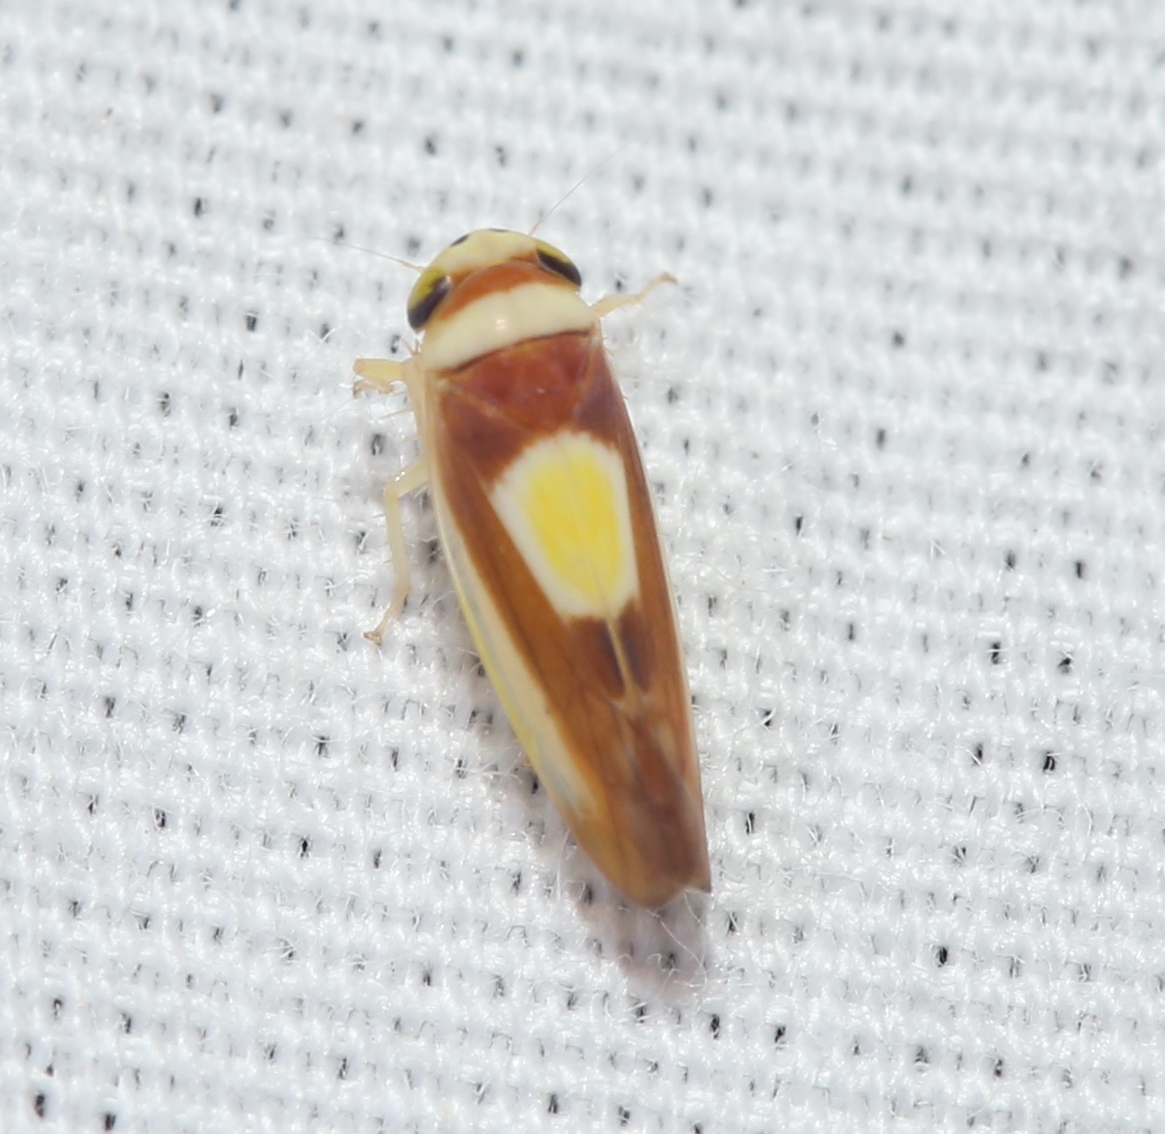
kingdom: Animalia
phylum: Arthropoda
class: Insecta
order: Hemiptera
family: Cicadellidae
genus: Colladonus
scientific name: Colladonus clitellarius
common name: The saddleback leafhopper
